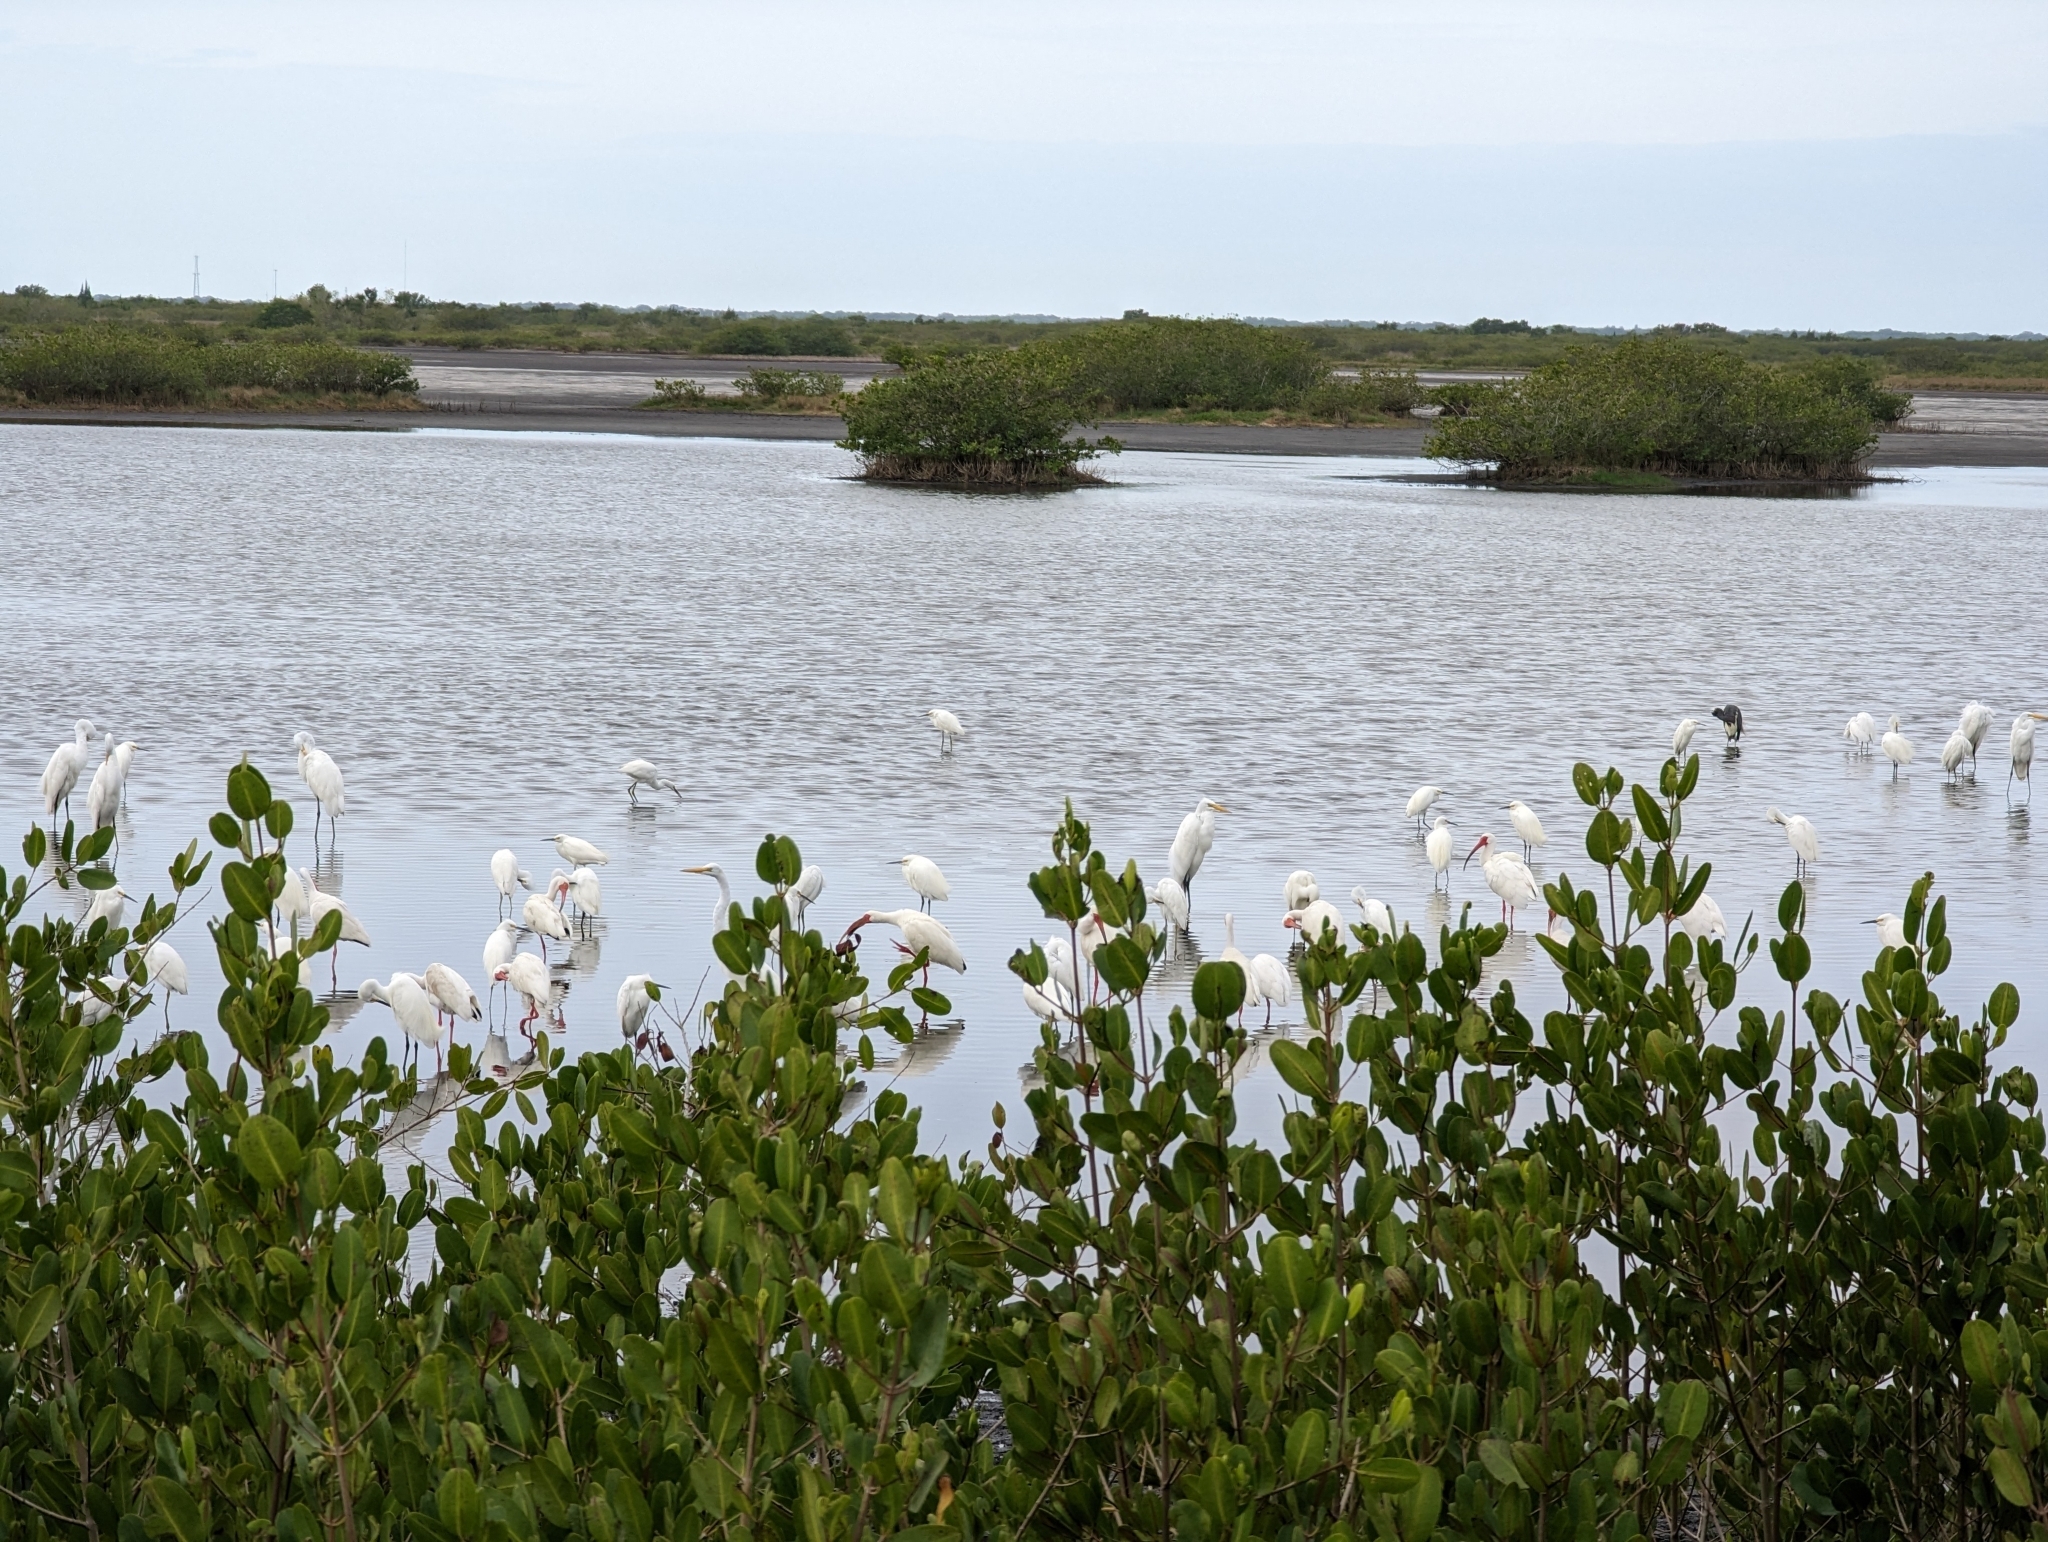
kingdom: Animalia
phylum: Chordata
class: Aves
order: Pelecaniformes
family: Threskiornithidae
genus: Eudocimus
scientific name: Eudocimus albus
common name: White ibis
